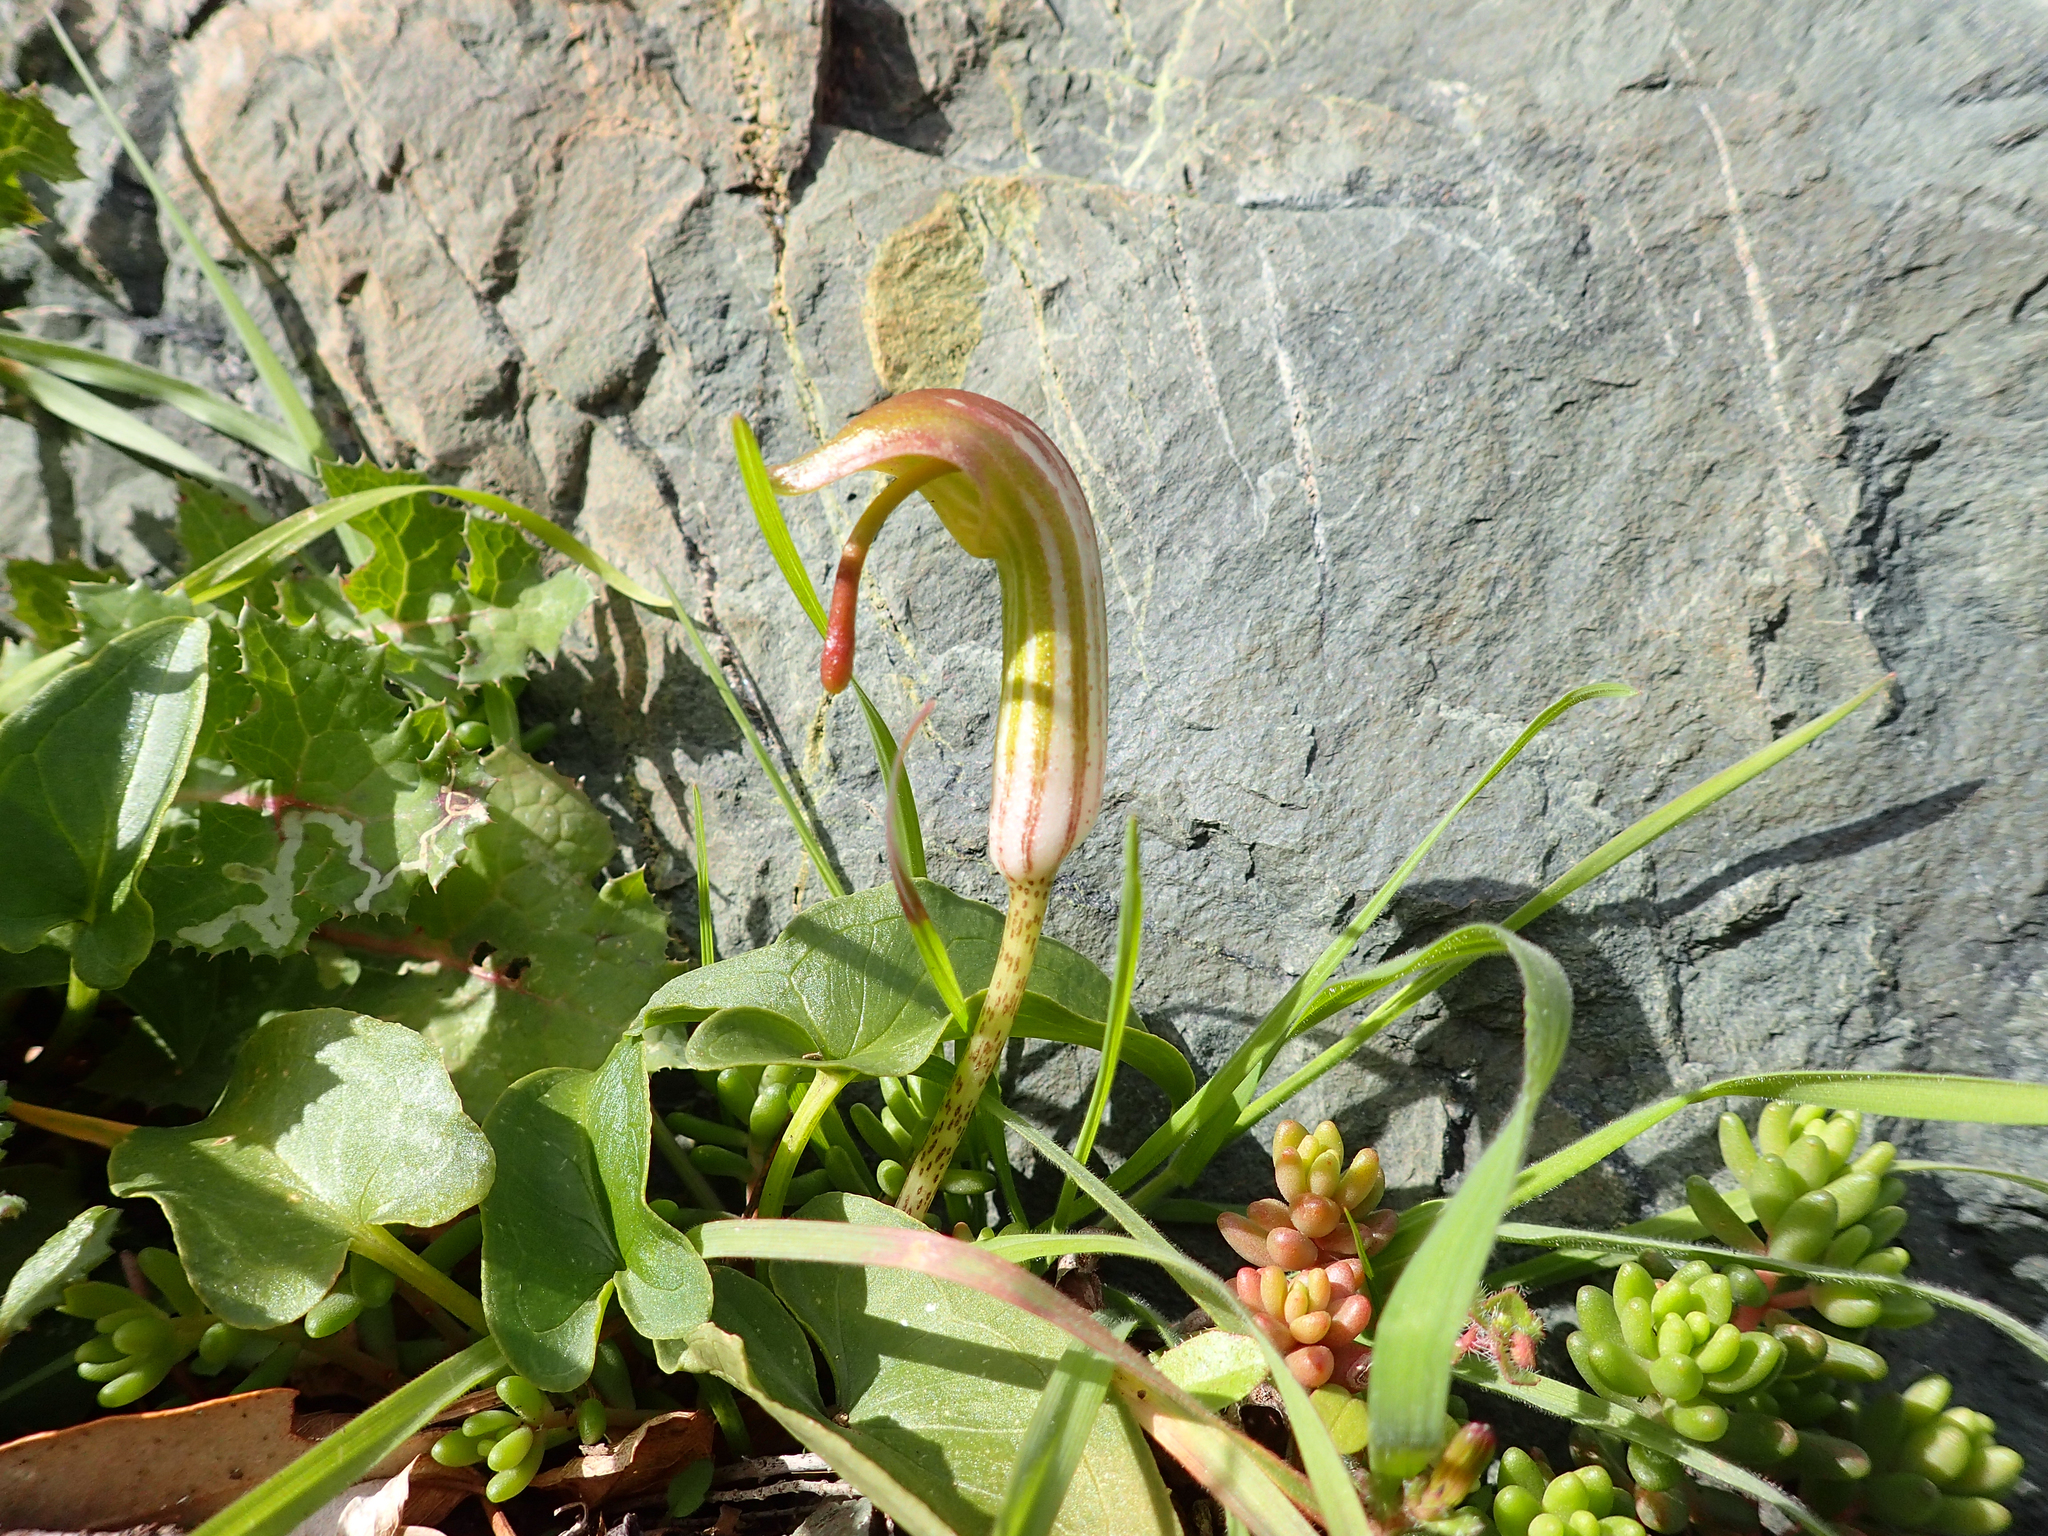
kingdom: Plantae
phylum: Tracheophyta
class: Liliopsida
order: Alismatales
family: Araceae
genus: Arisarum
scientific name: Arisarum vulgare
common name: Common arisarum
